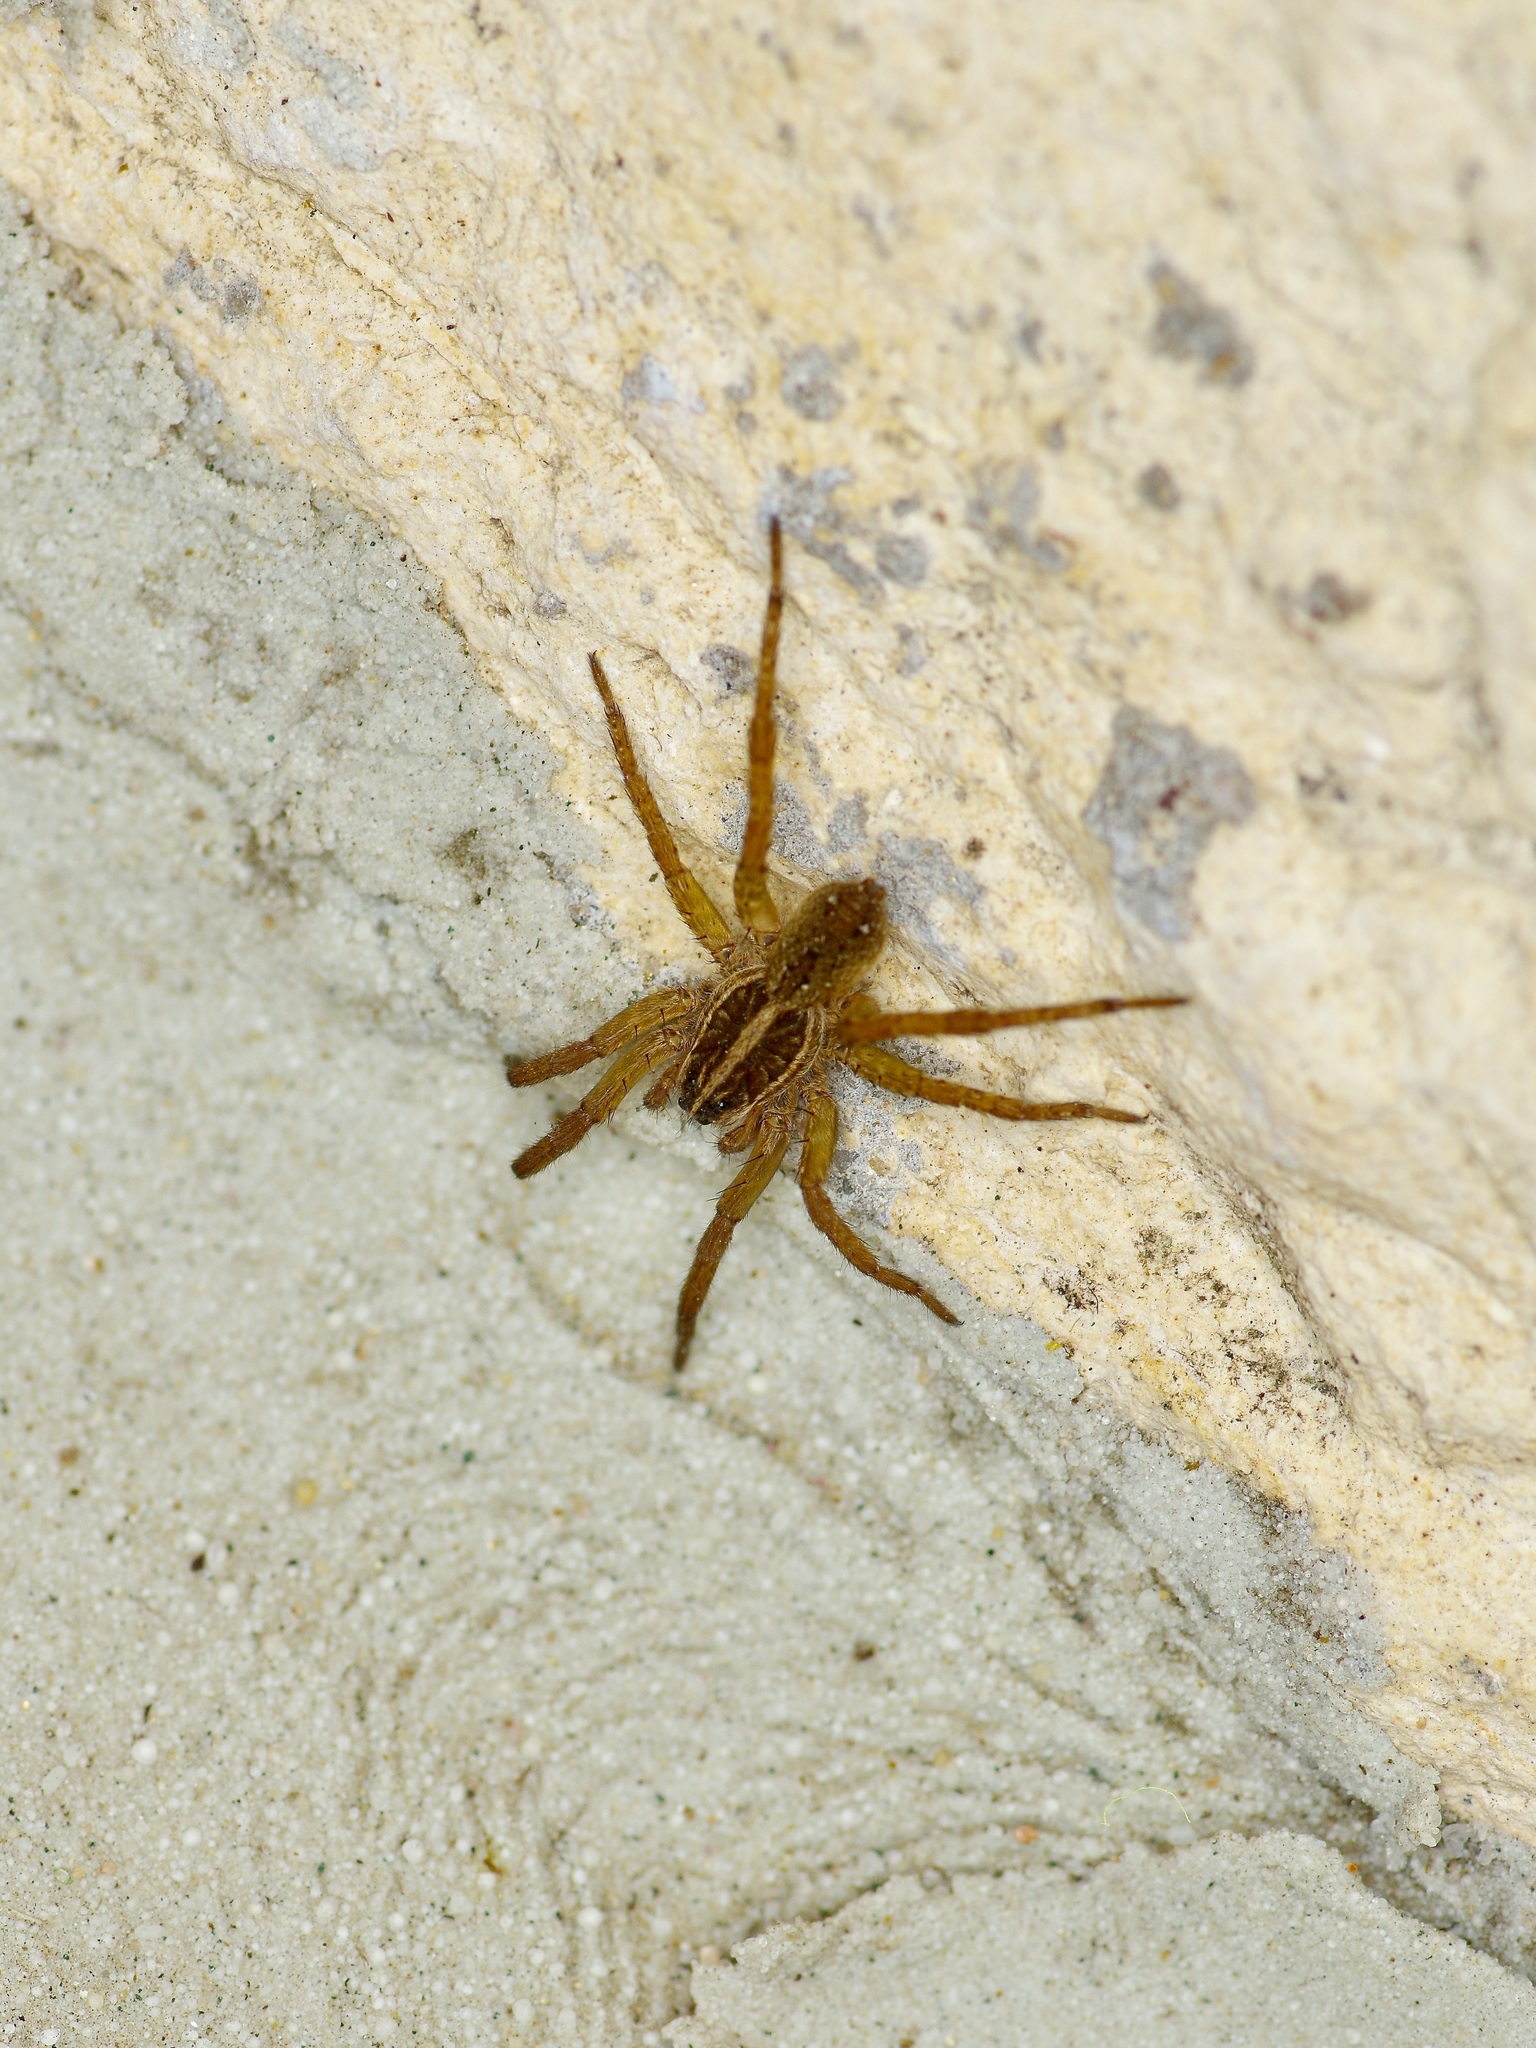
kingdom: Animalia
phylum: Arthropoda
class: Arachnida
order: Araneae
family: Lycosidae
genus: Tigrosa
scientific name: Tigrosa annexa
